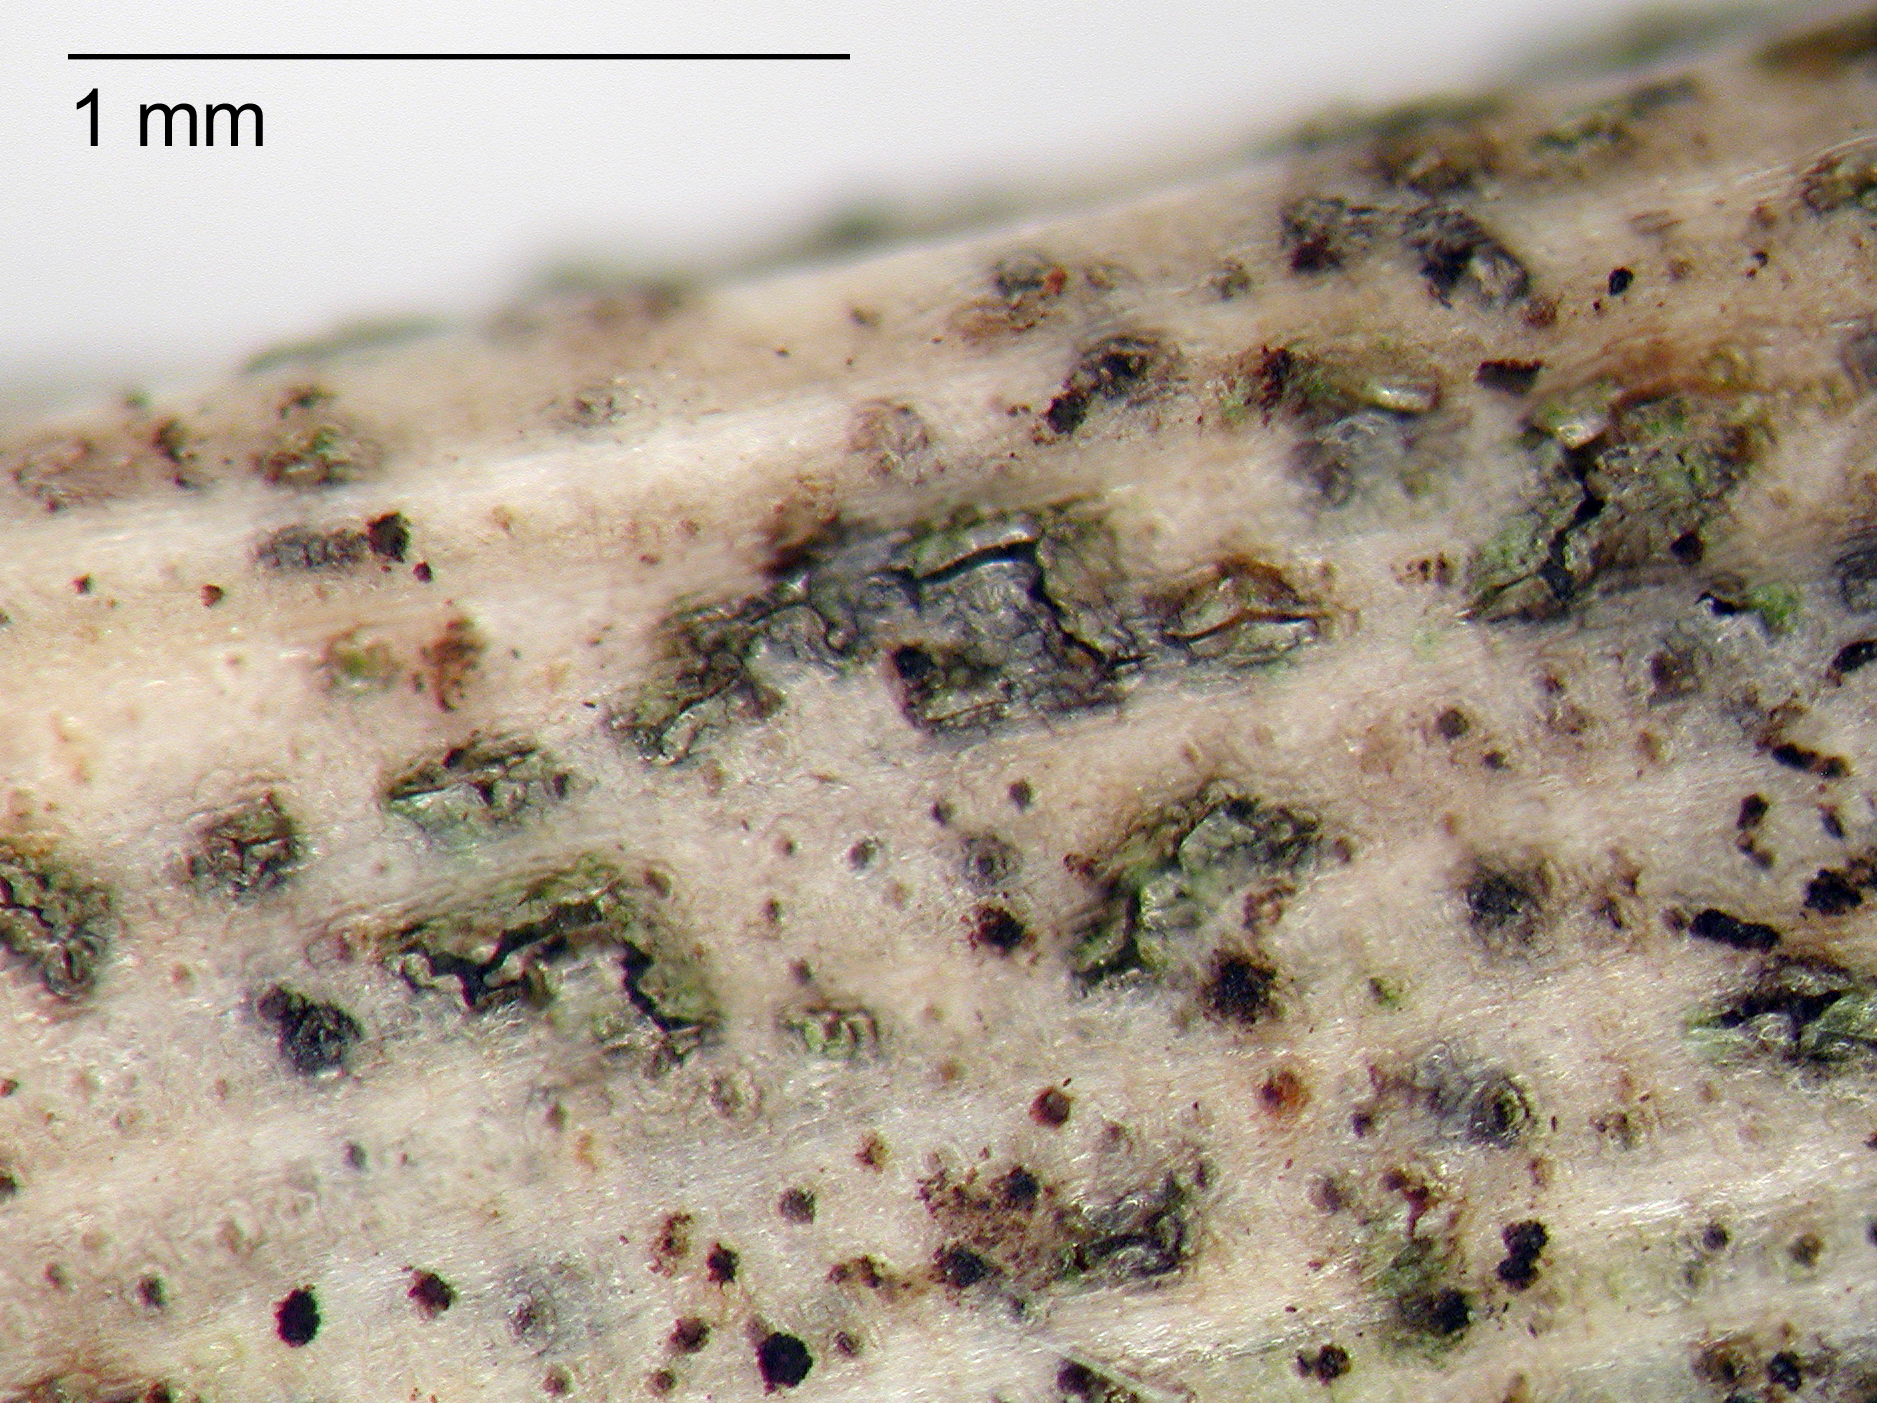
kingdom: Fungi
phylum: Ascomycota
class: Dothideomycetes
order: Pleosporales
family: Didymosphaeriaceae
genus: Didymosphaeria
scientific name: Didymosphaeria variabile
